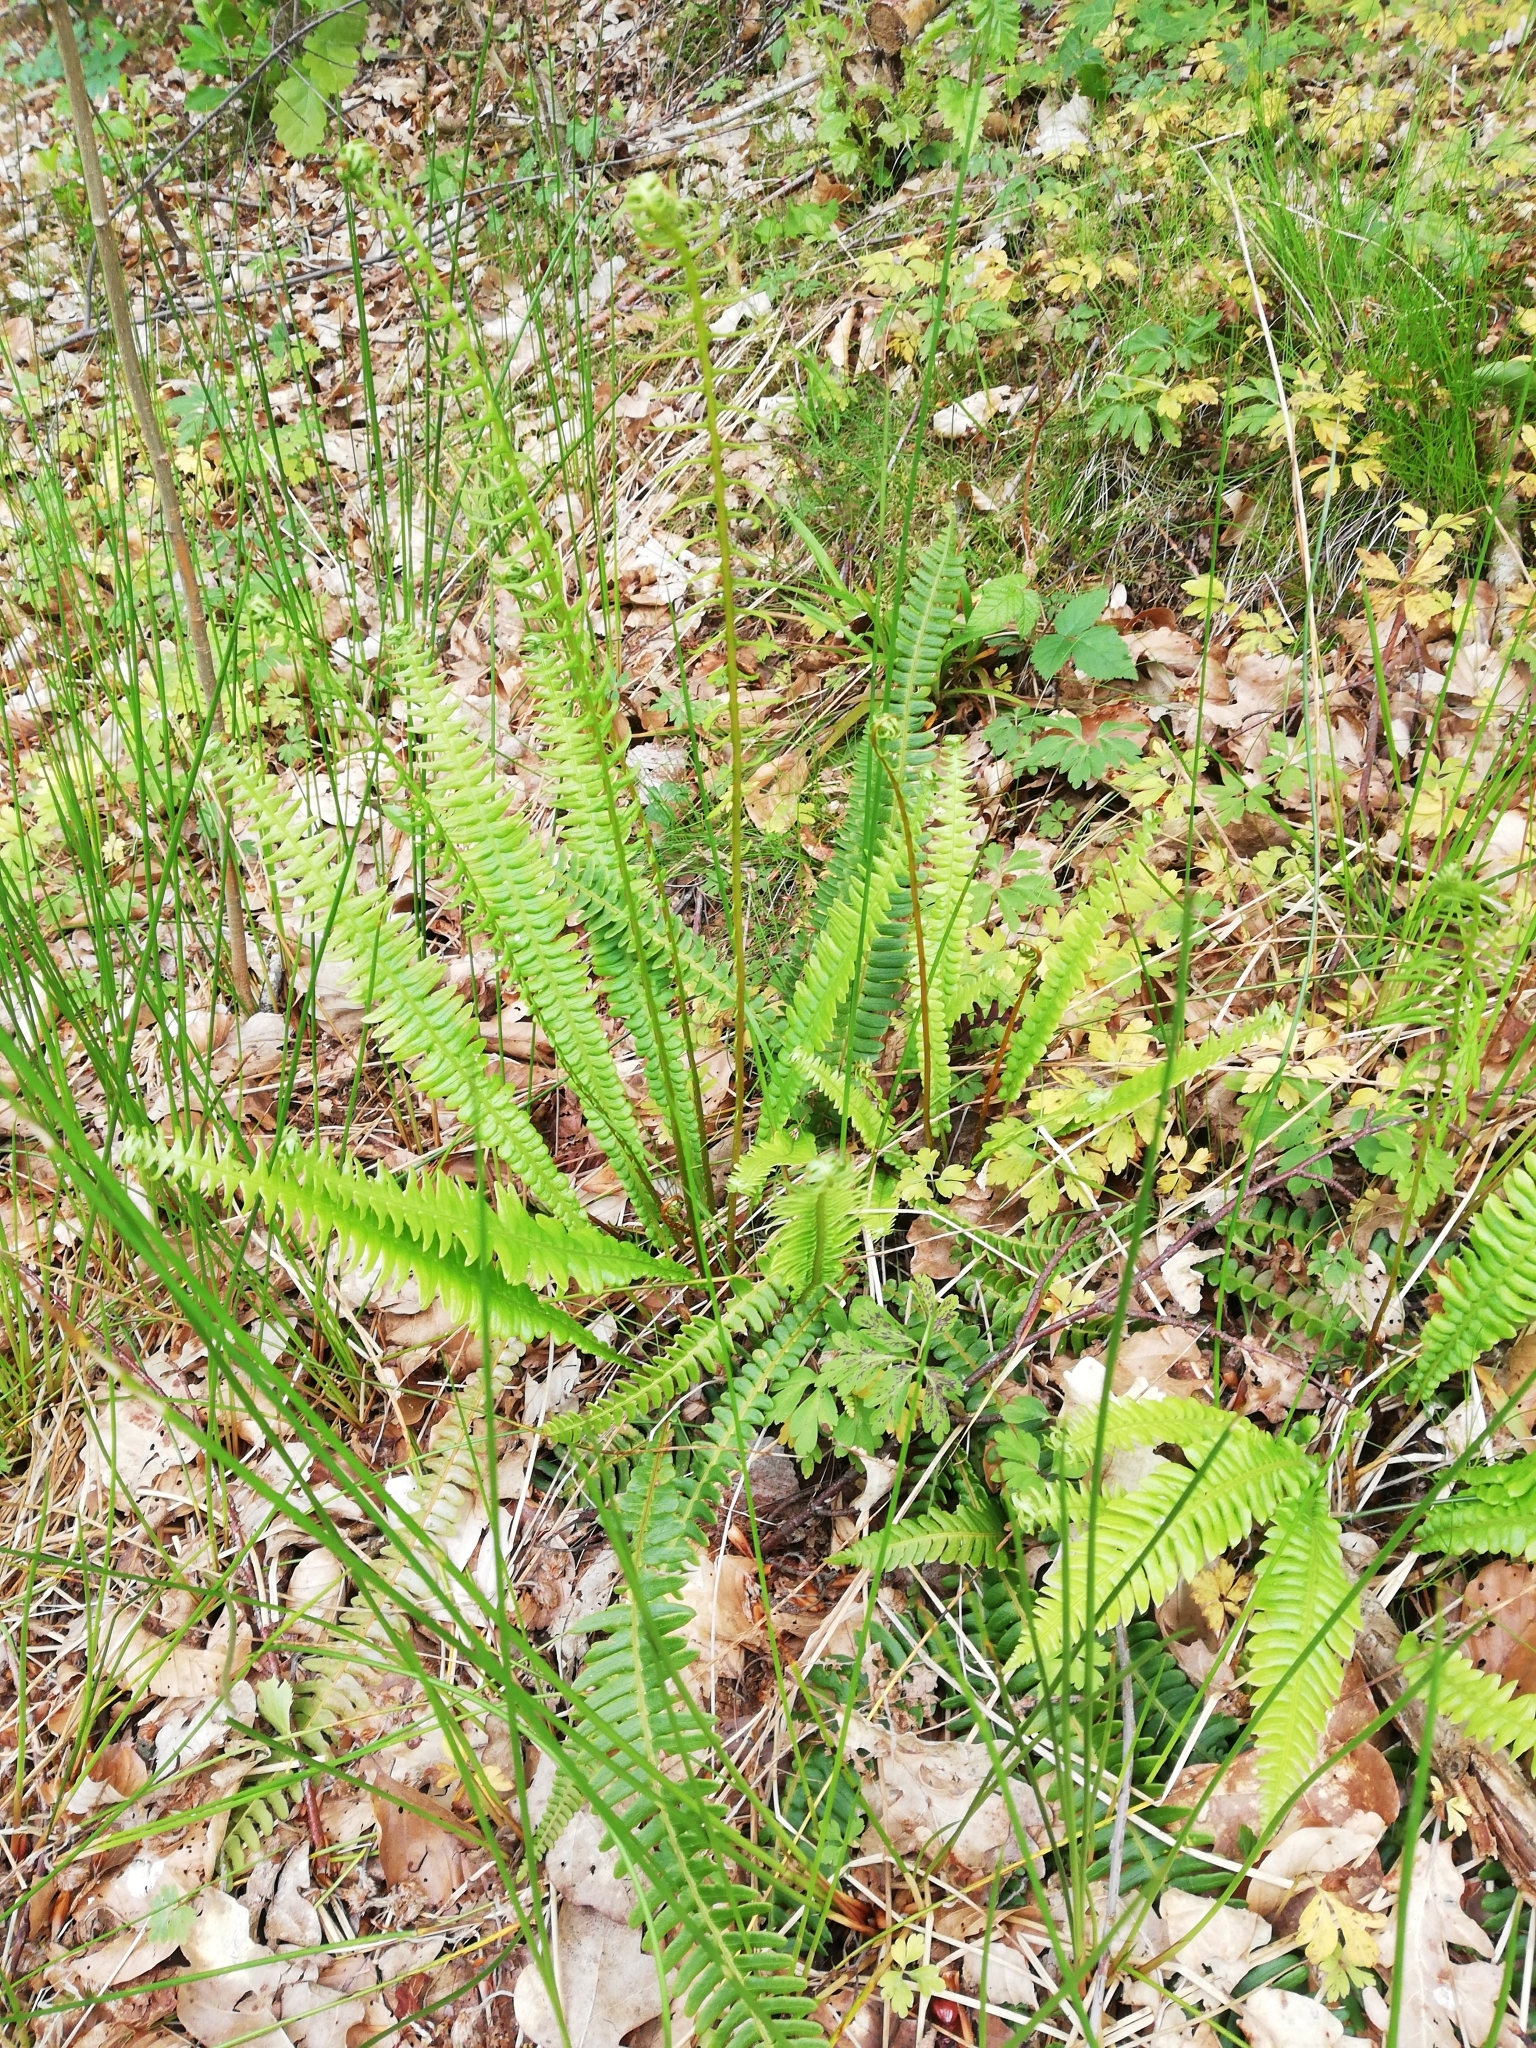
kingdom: Plantae
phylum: Tracheophyta
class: Polypodiopsida
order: Polypodiales
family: Blechnaceae
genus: Struthiopteris
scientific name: Struthiopteris spicant
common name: Deer fern
